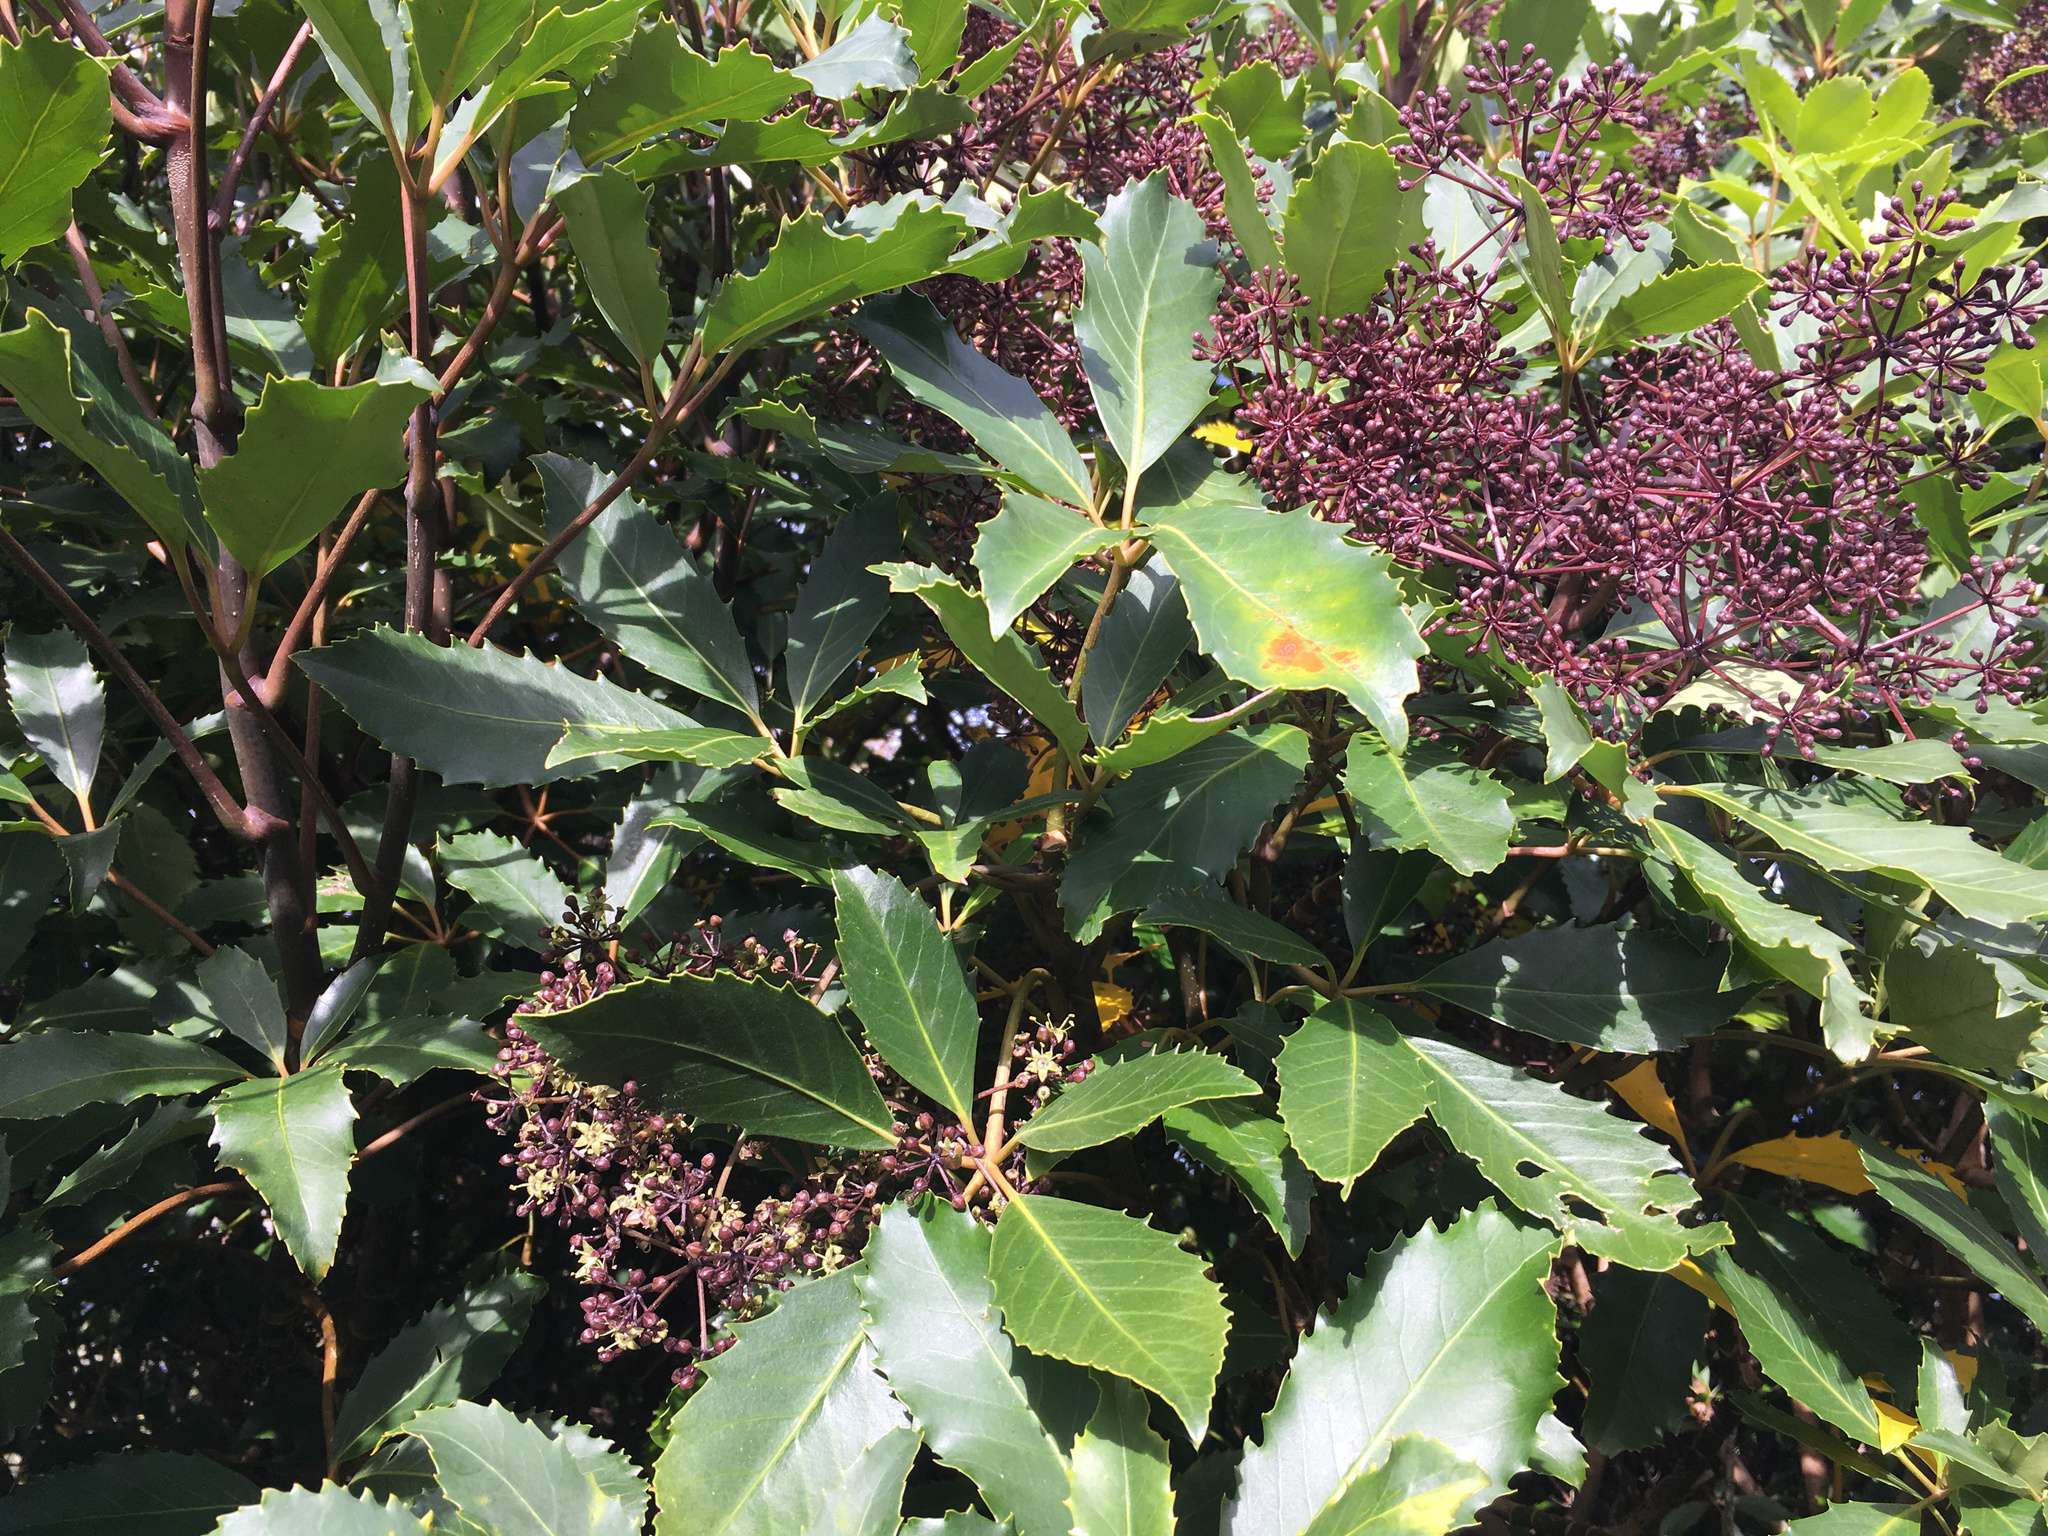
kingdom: Plantae
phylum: Tracheophyta
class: Magnoliopsida
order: Apiales
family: Araliaceae
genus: Neopanax
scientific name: Neopanax arboreus
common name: Five-fingers
